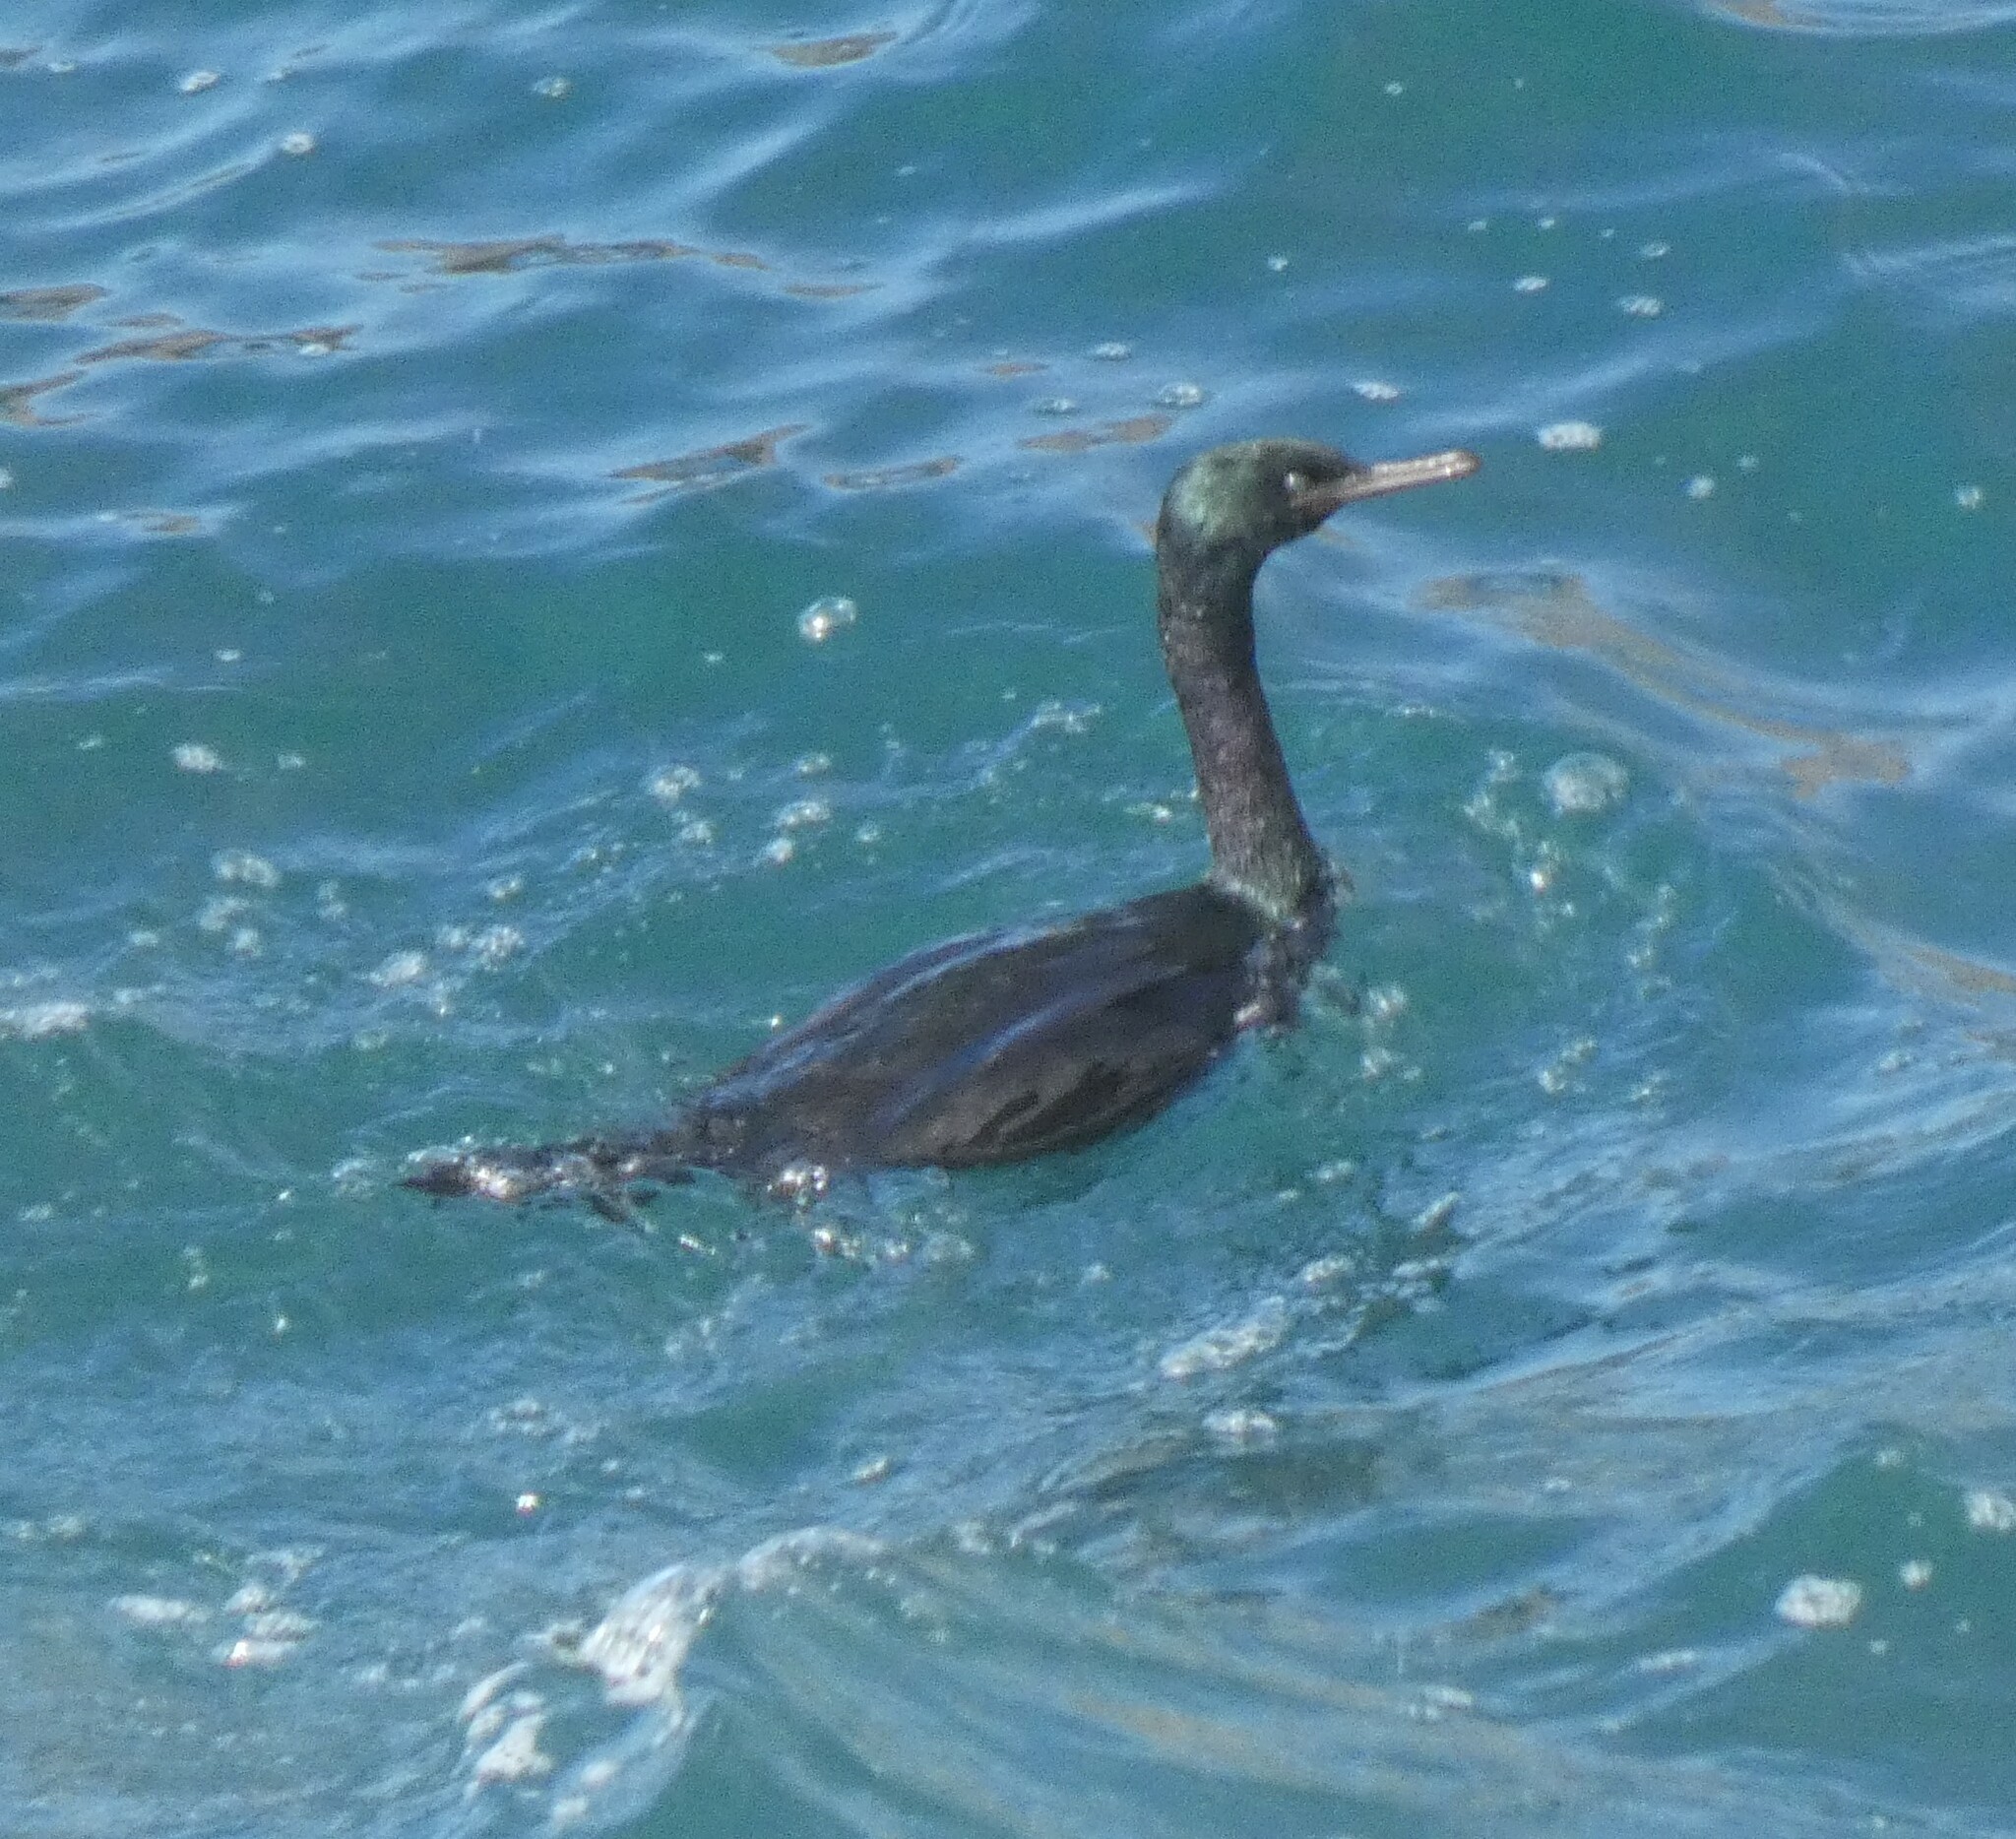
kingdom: Animalia
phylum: Chordata
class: Aves
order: Suliformes
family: Phalacrocoracidae
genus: Phalacrocorax
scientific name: Phalacrocorax pelagicus
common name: Pelagic cormorant
